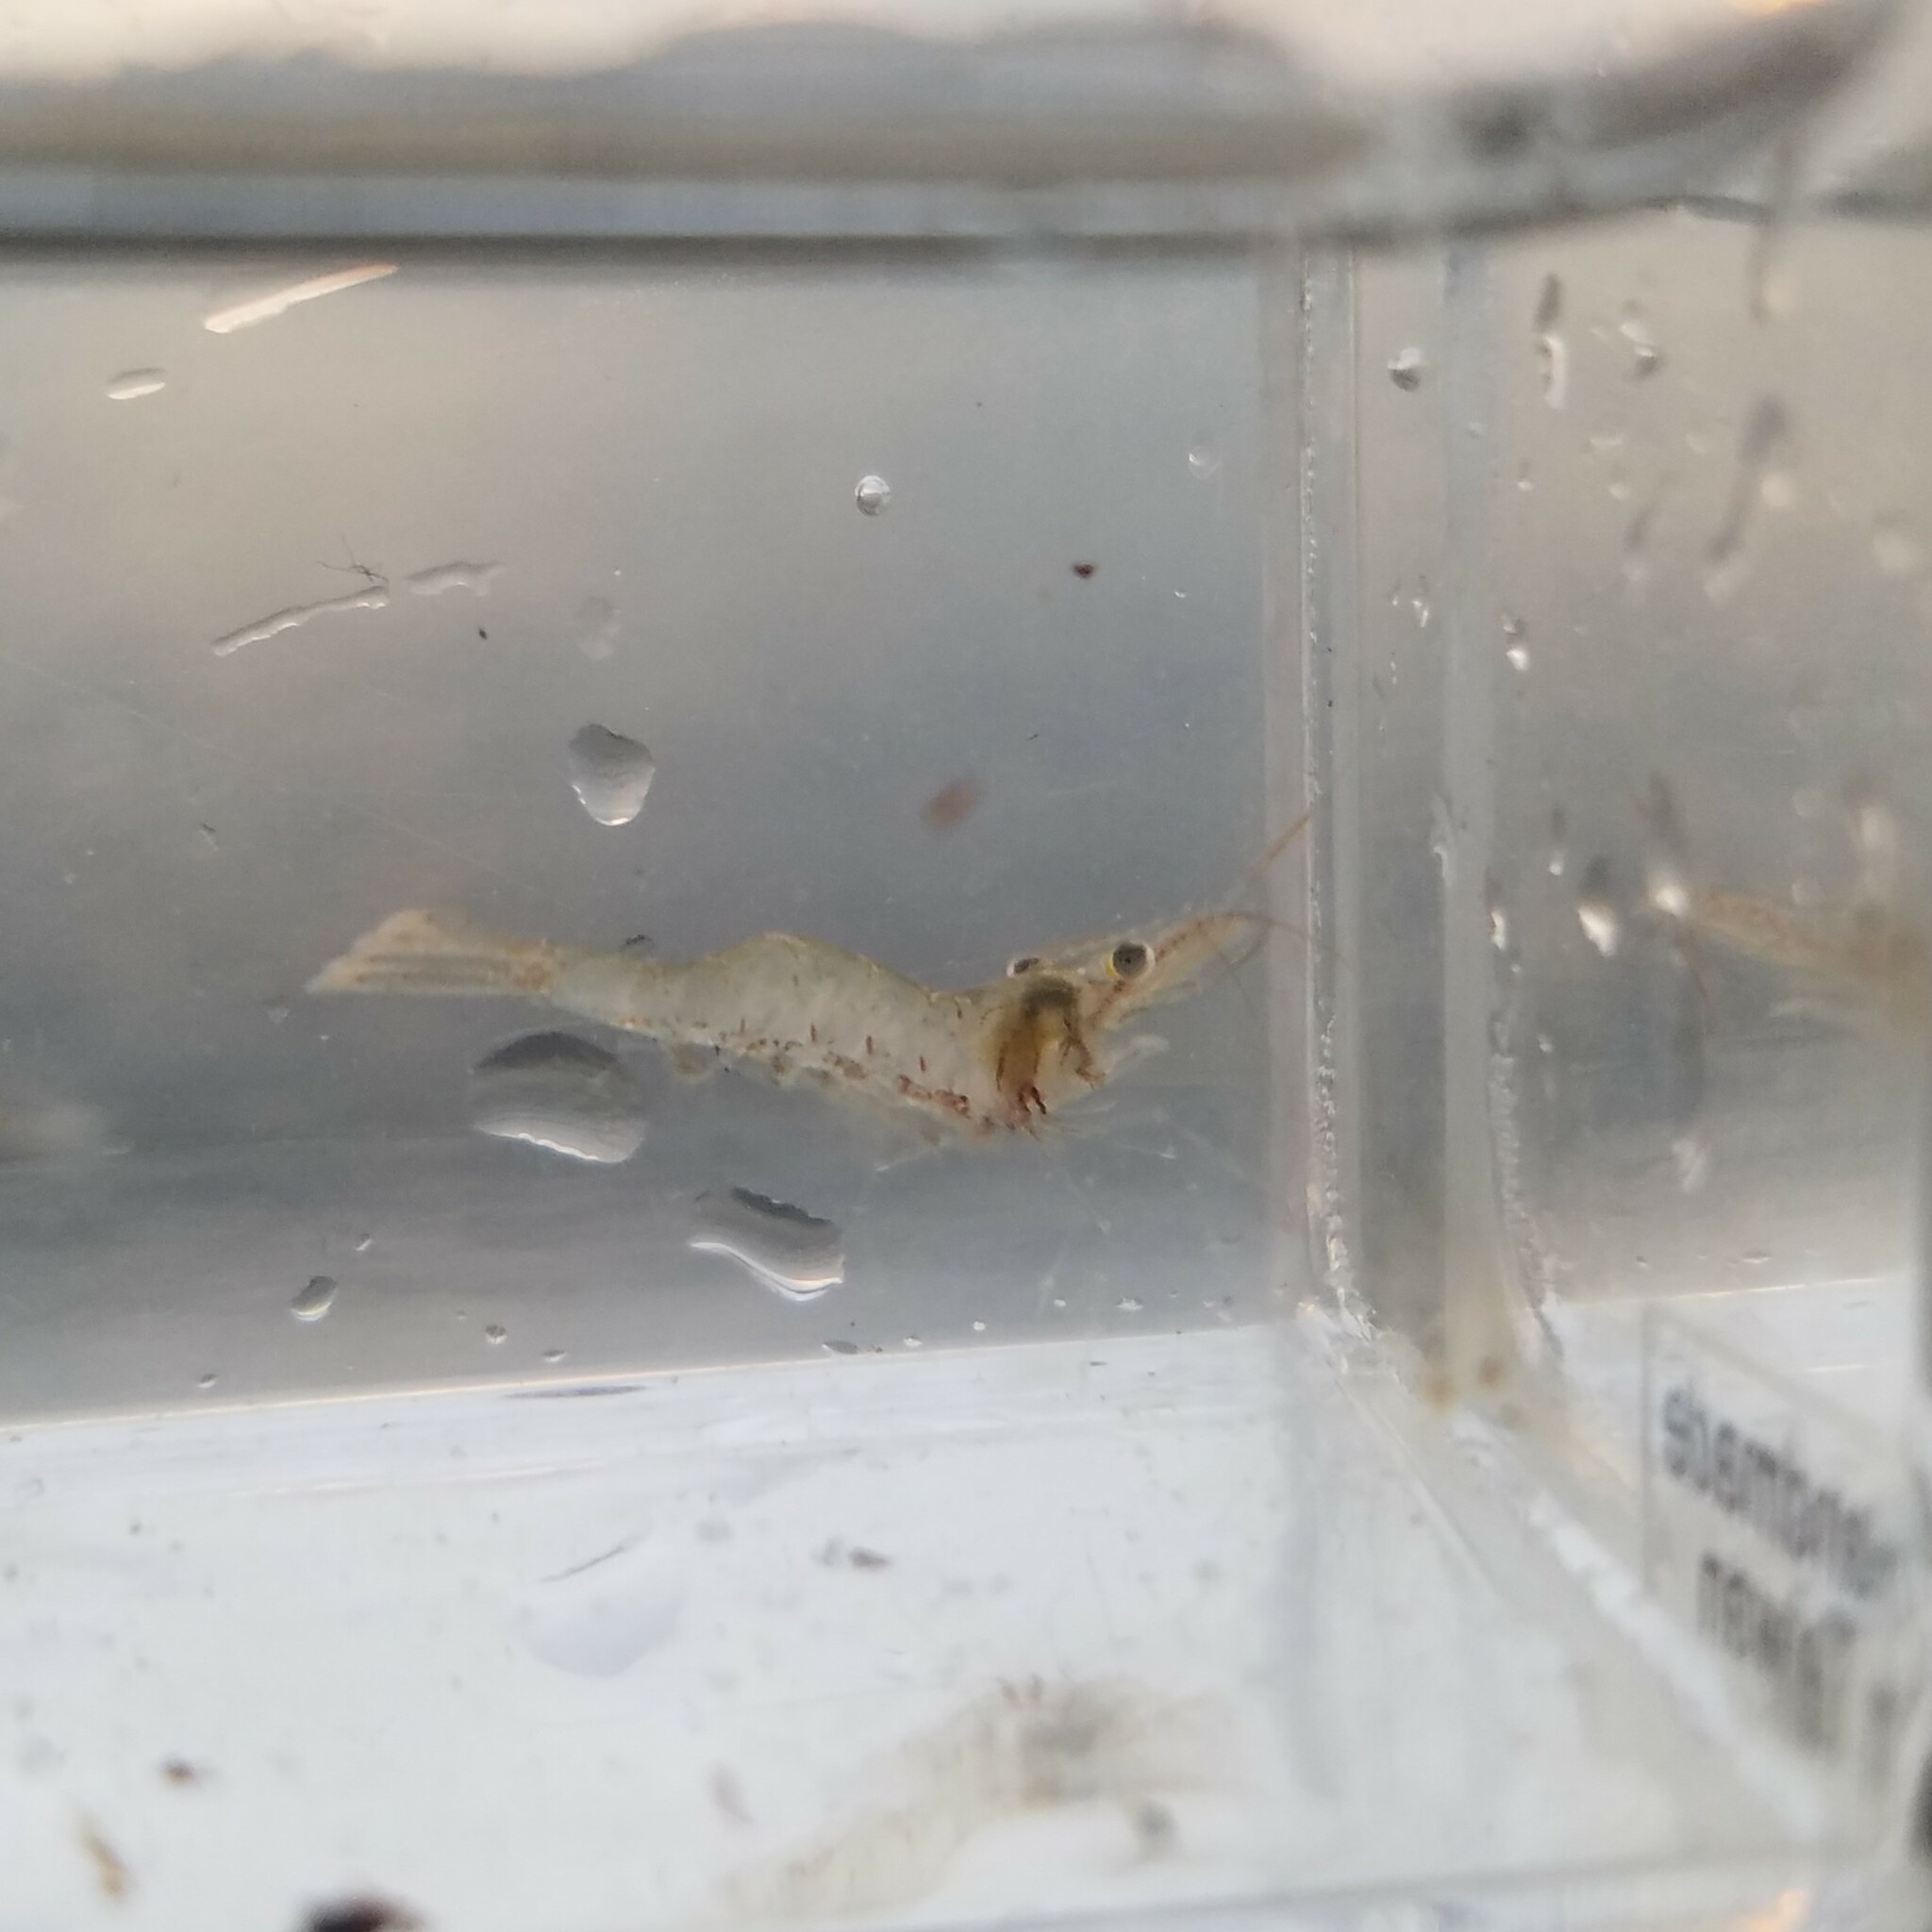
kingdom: Animalia
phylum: Arthropoda
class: Malacostraca
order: Decapoda
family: Palaemonidae
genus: Palaemon
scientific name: Palaemon
